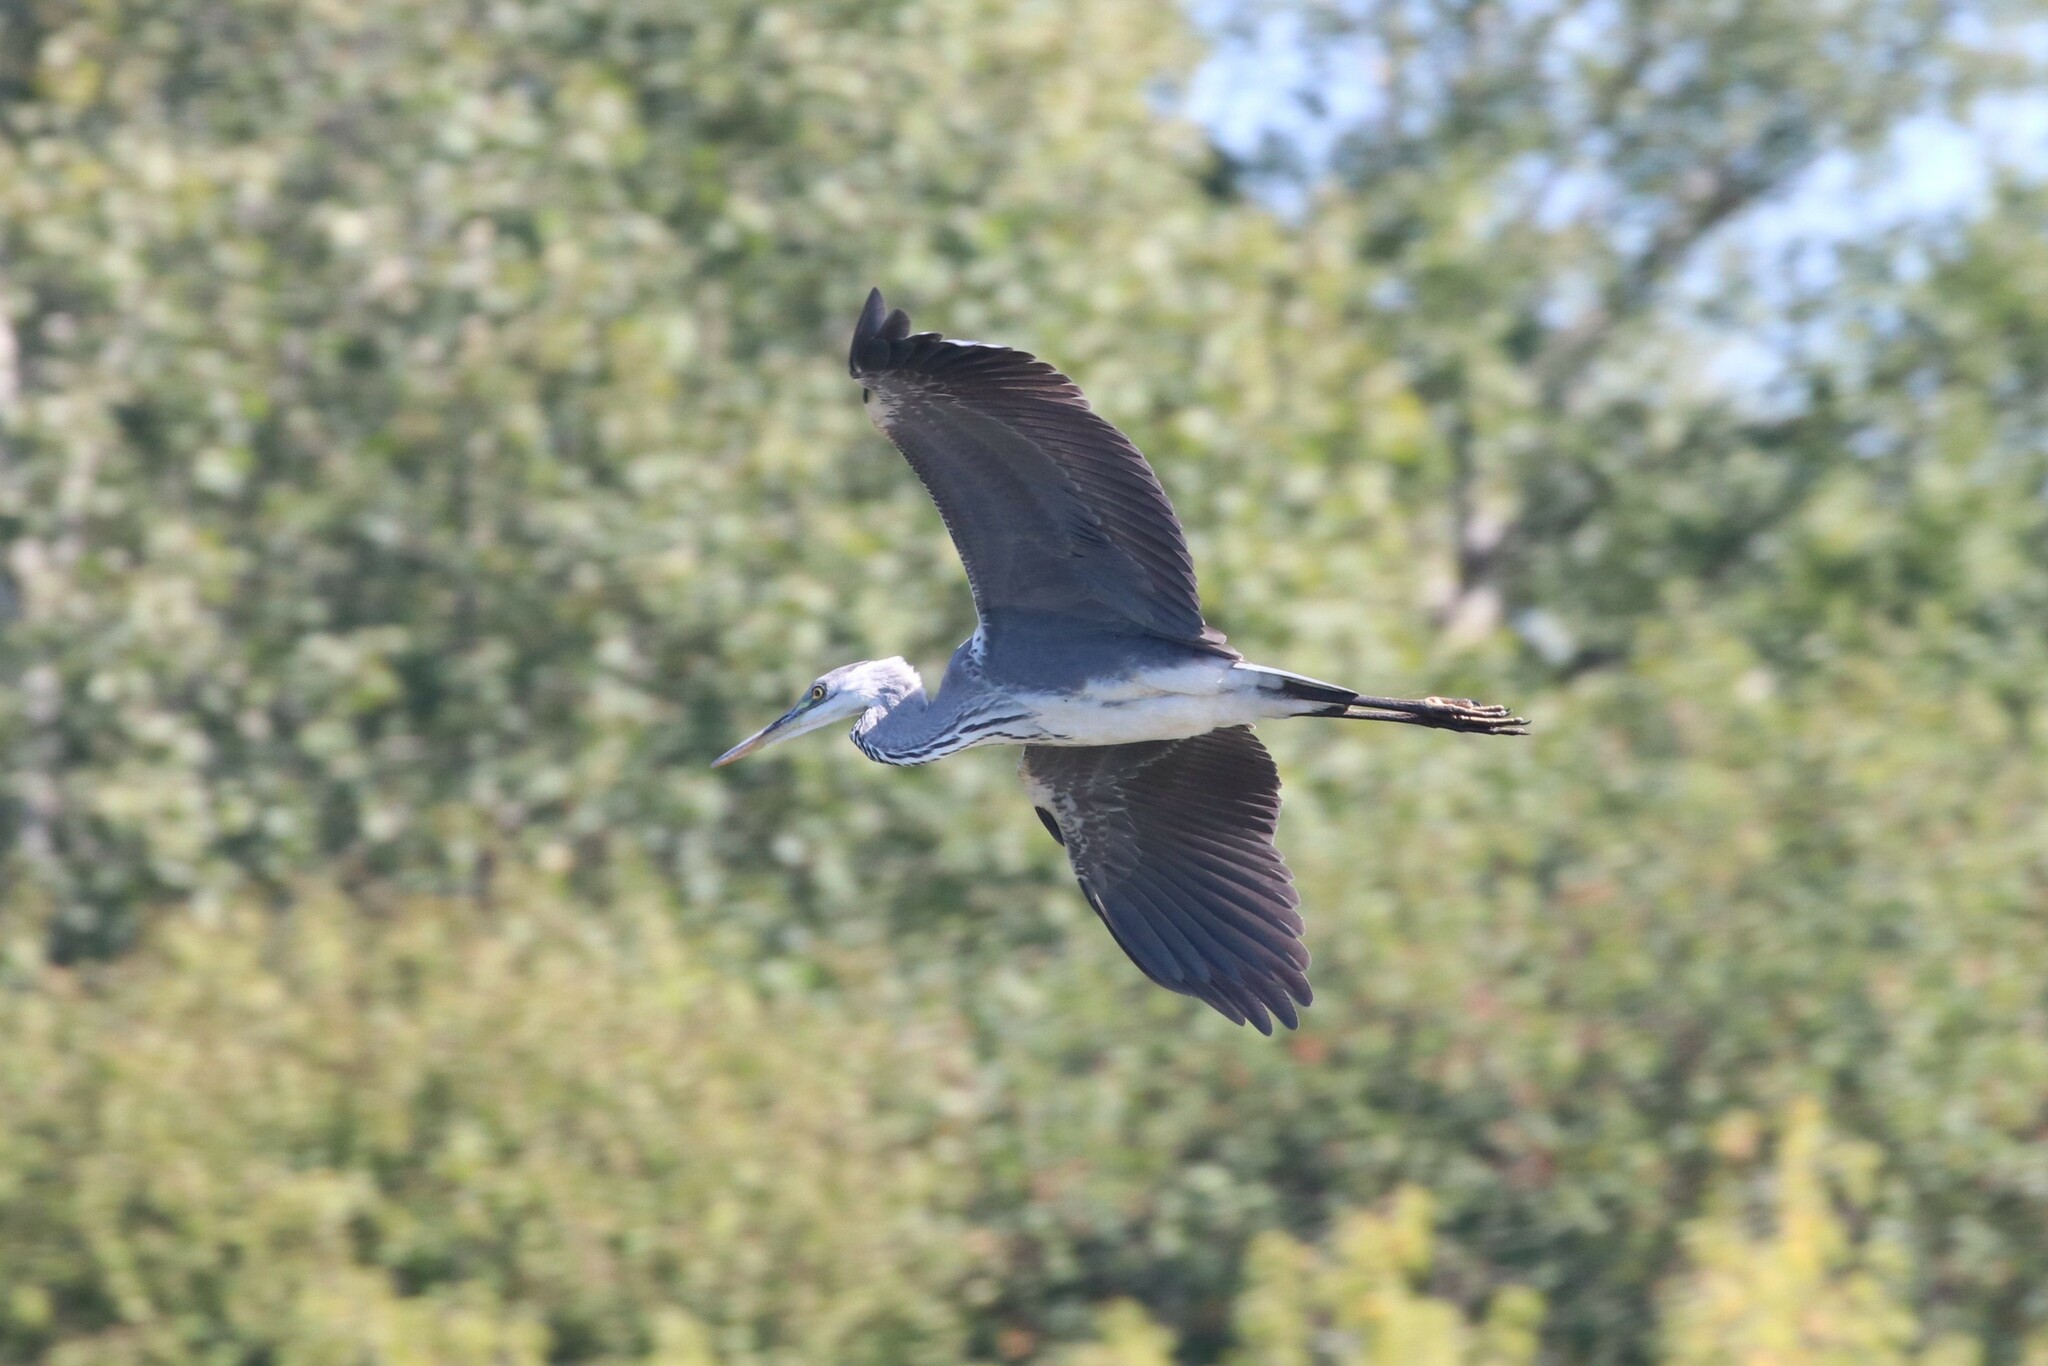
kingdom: Animalia
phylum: Chordata
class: Aves
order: Pelecaniformes
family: Ardeidae
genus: Ardea
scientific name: Ardea cinerea
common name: Grey heron
